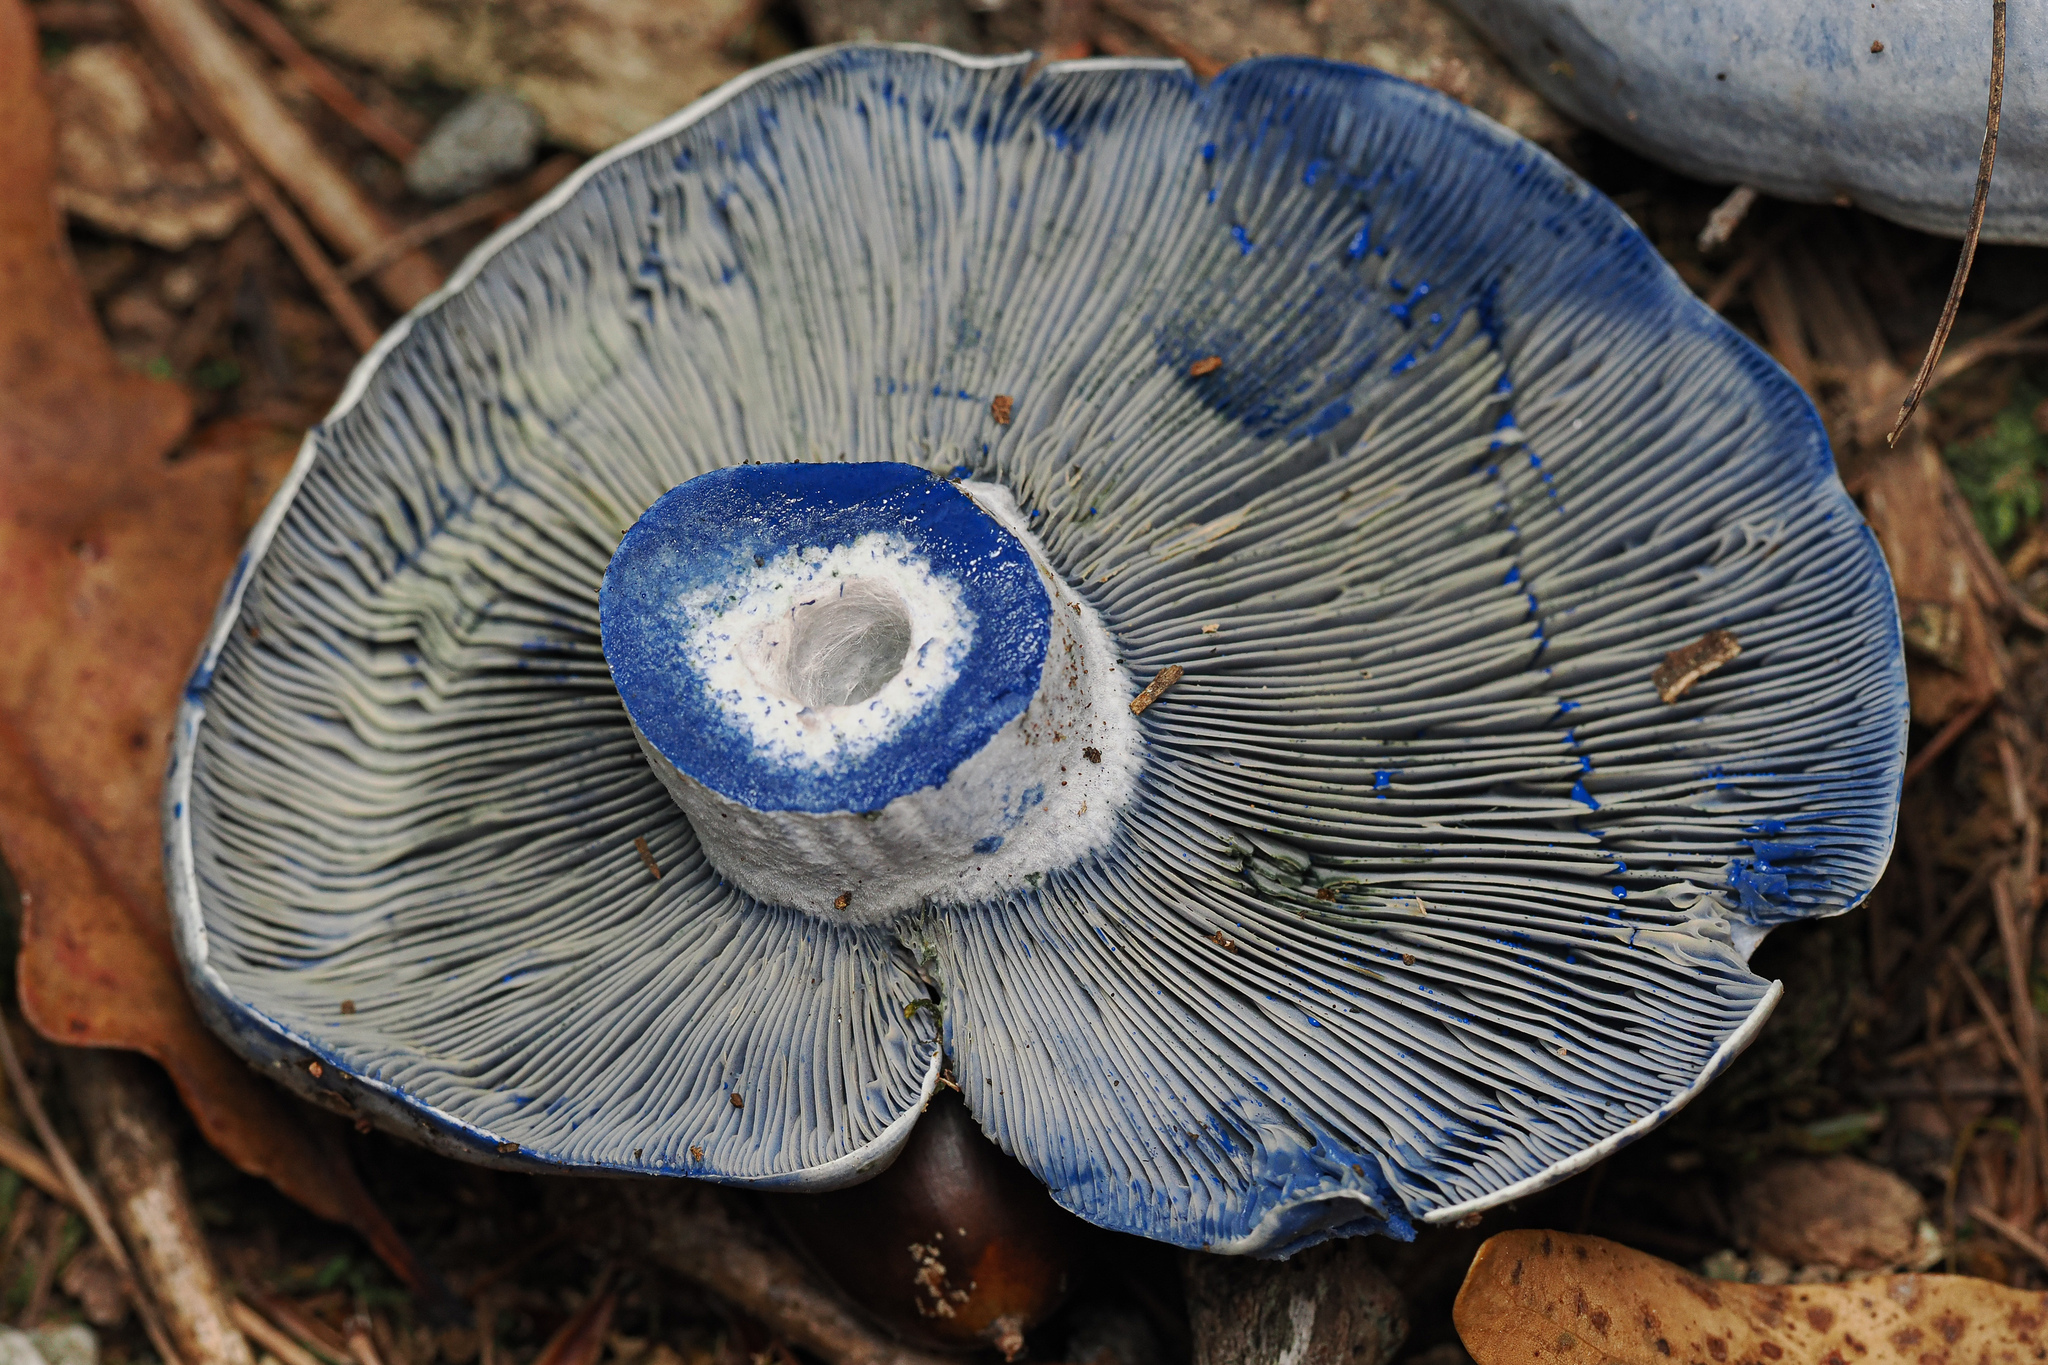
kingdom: Fungi
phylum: Basidiomycota
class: Agaricomycetes
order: Russulales
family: Russulaceae
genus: Lactarius
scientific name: Lactarius indigo
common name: Indigo milk cap
